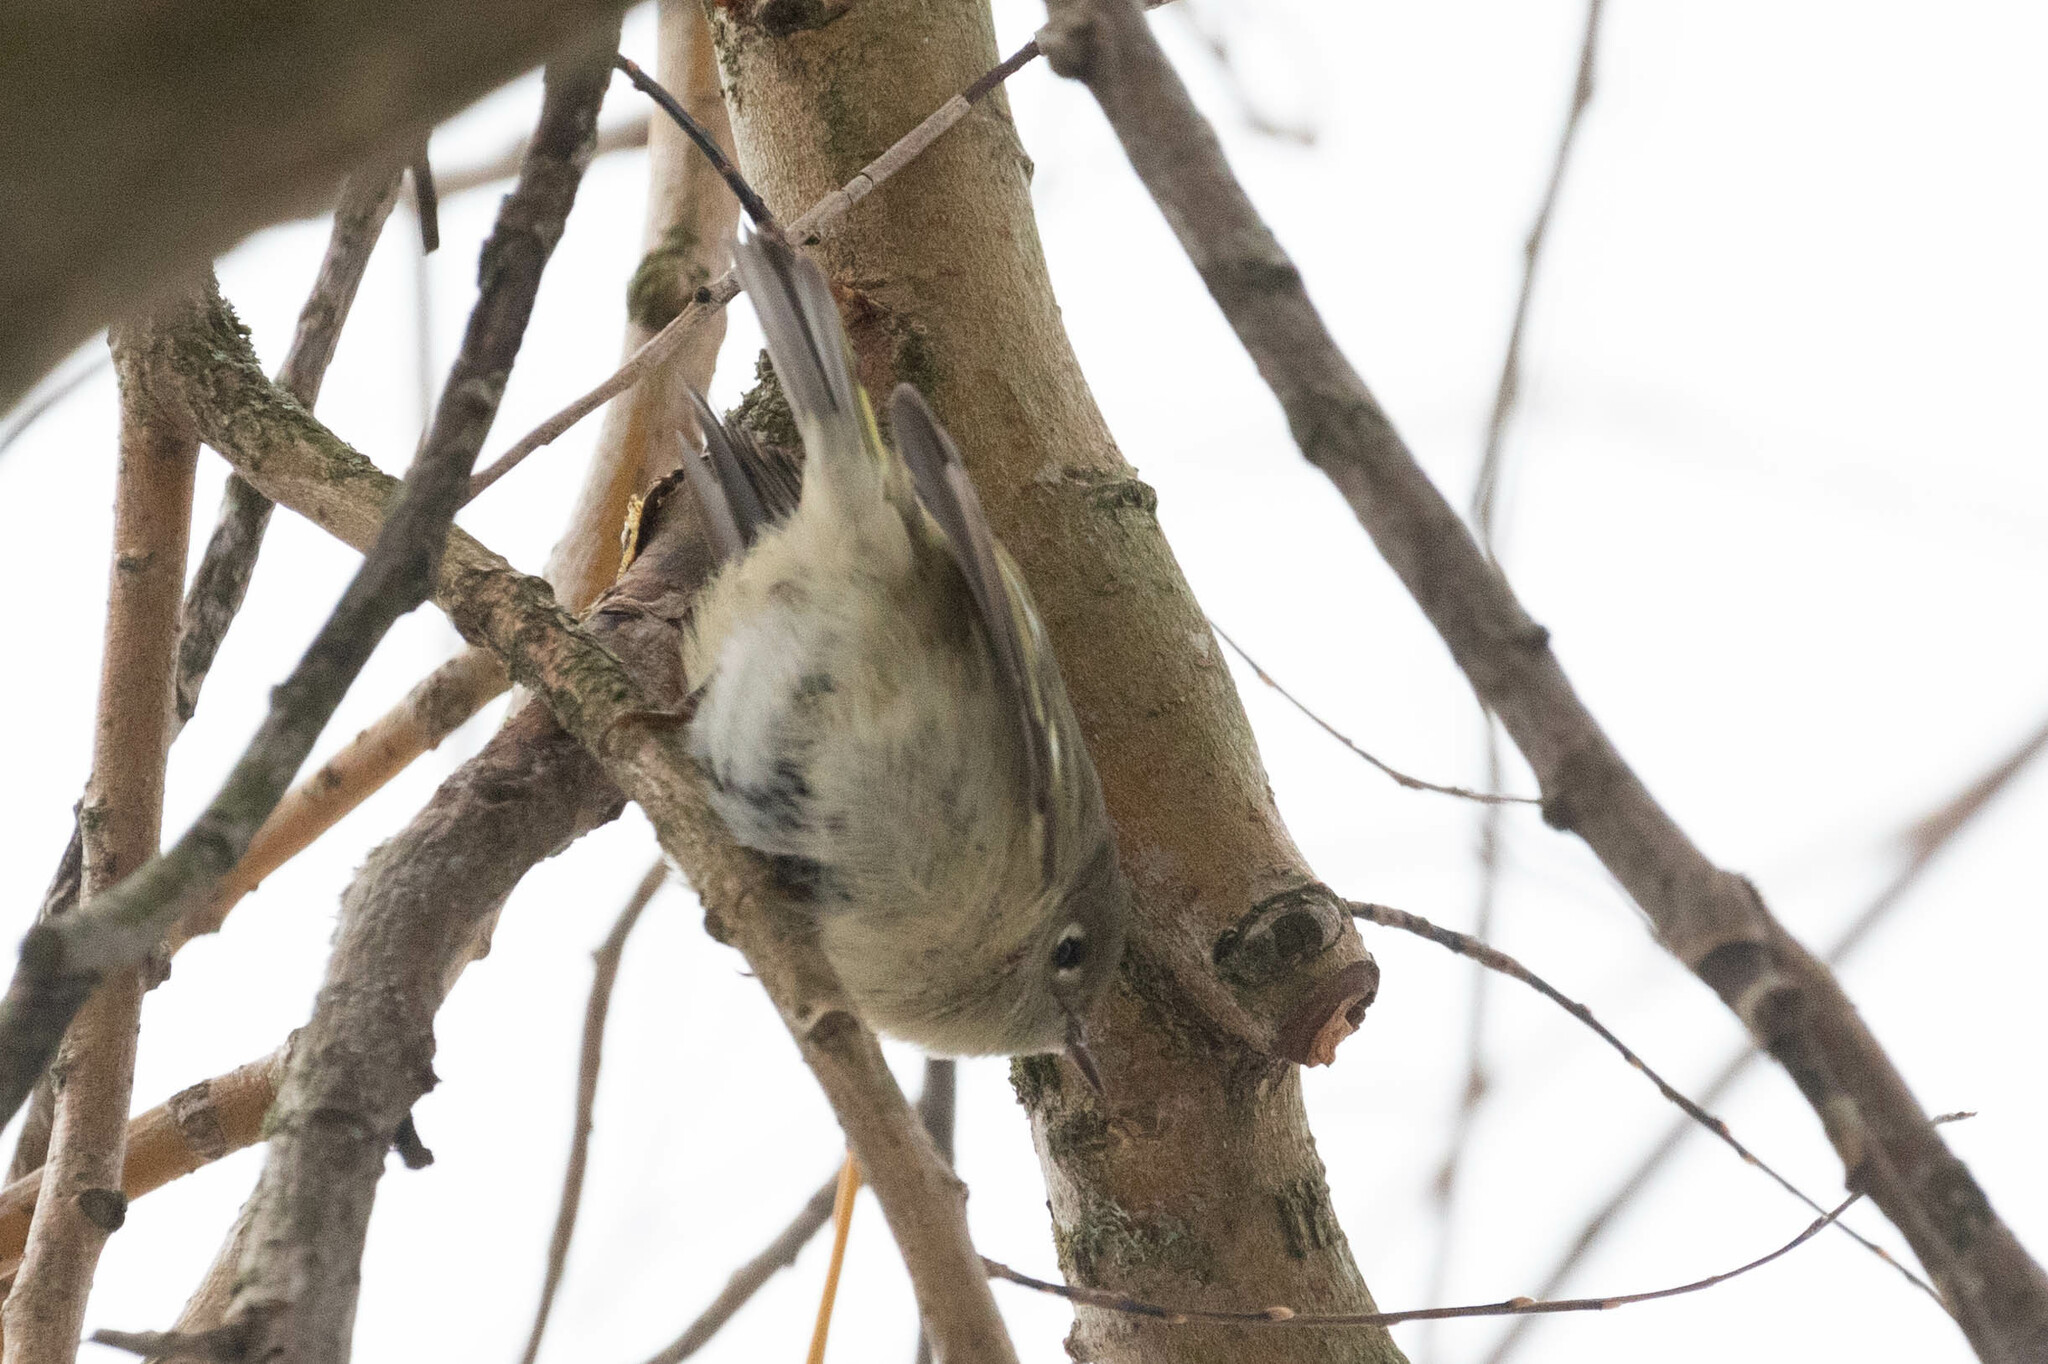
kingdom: Animalia
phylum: Chordata
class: Aves
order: Passeriformes
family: Regulidae
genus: Regulus
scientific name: Regulus calendula
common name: Ruby-crowned kinglet
